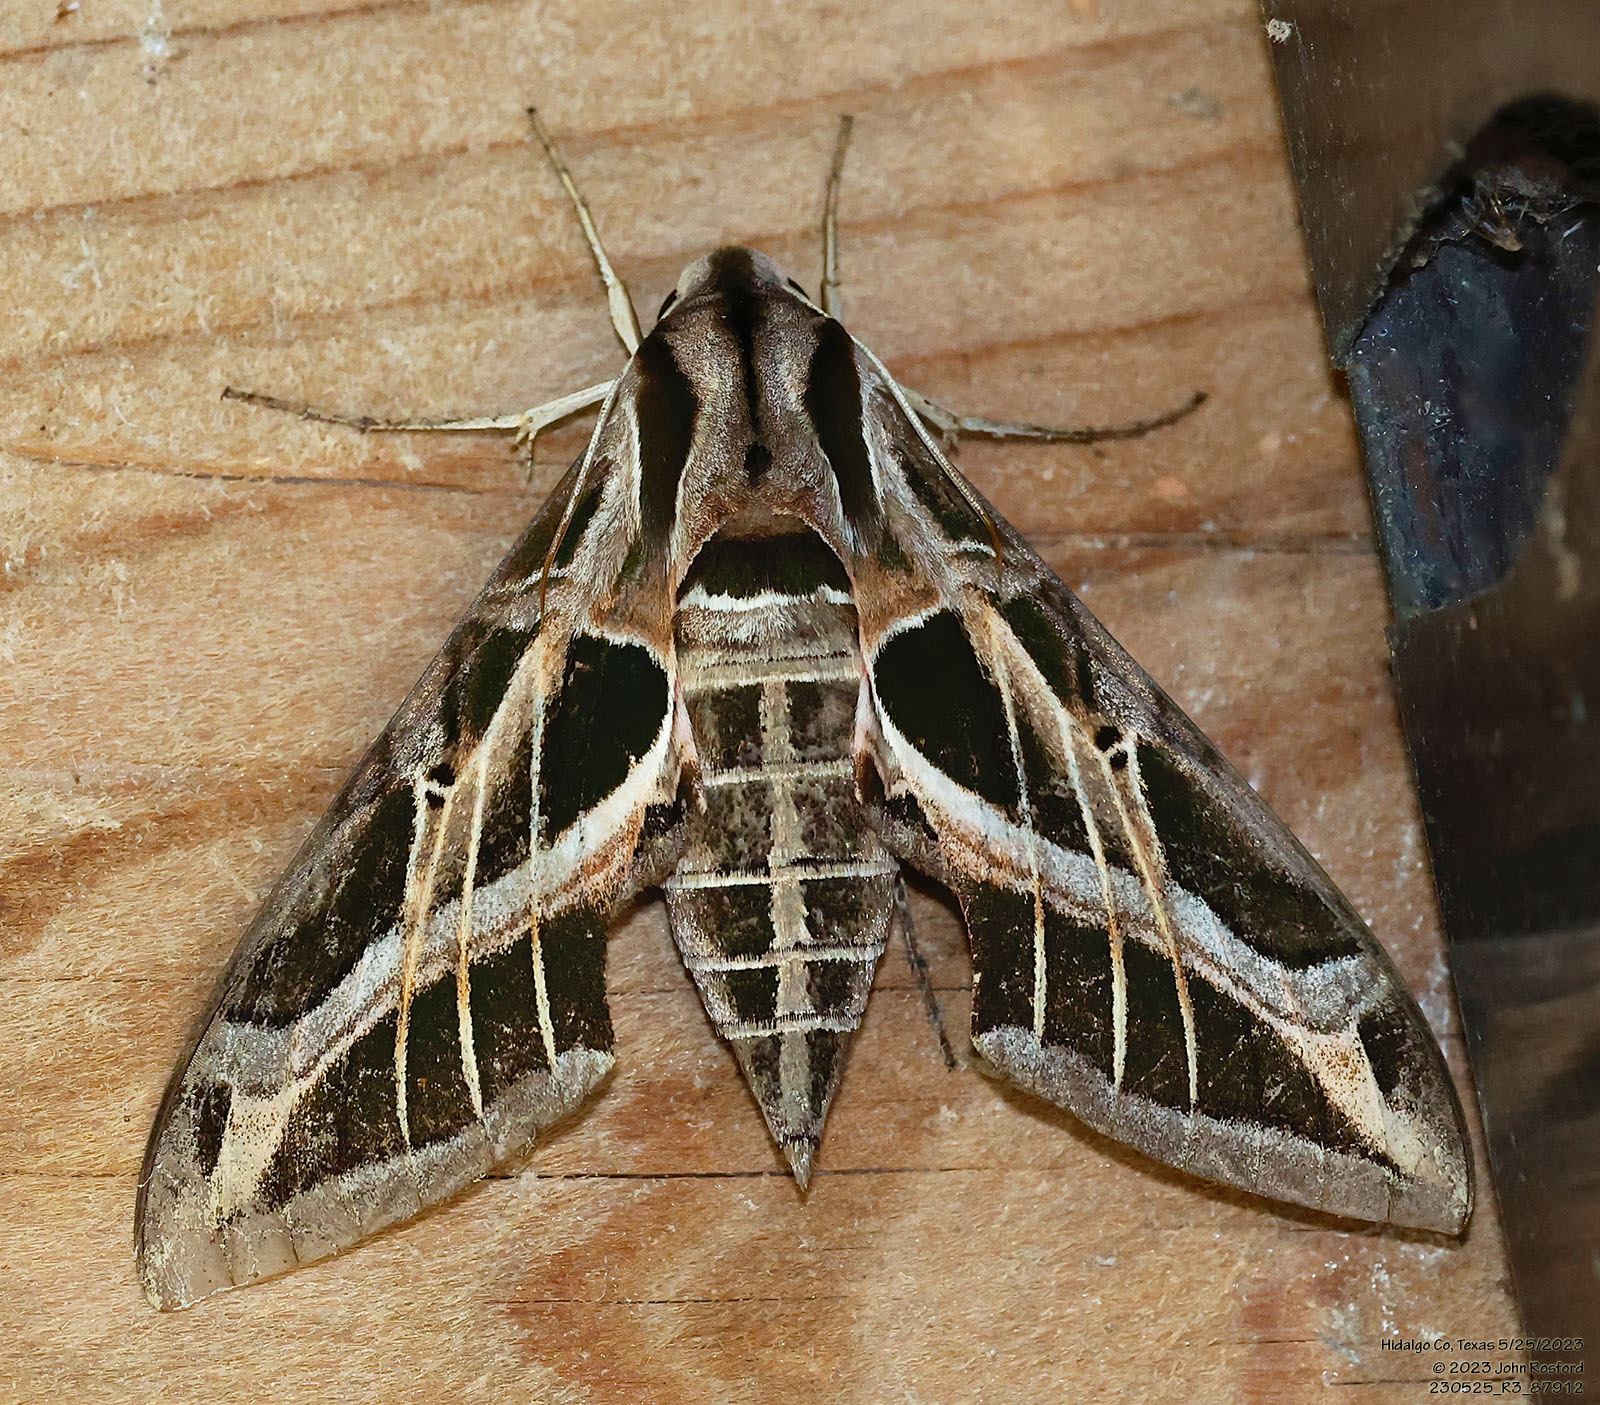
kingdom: Animalia
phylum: Arthropoda
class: Insecta
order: Lepidoptera
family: Sphingidae
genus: Eumorpha
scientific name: Eumorpha vitis
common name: Vine sphinx
